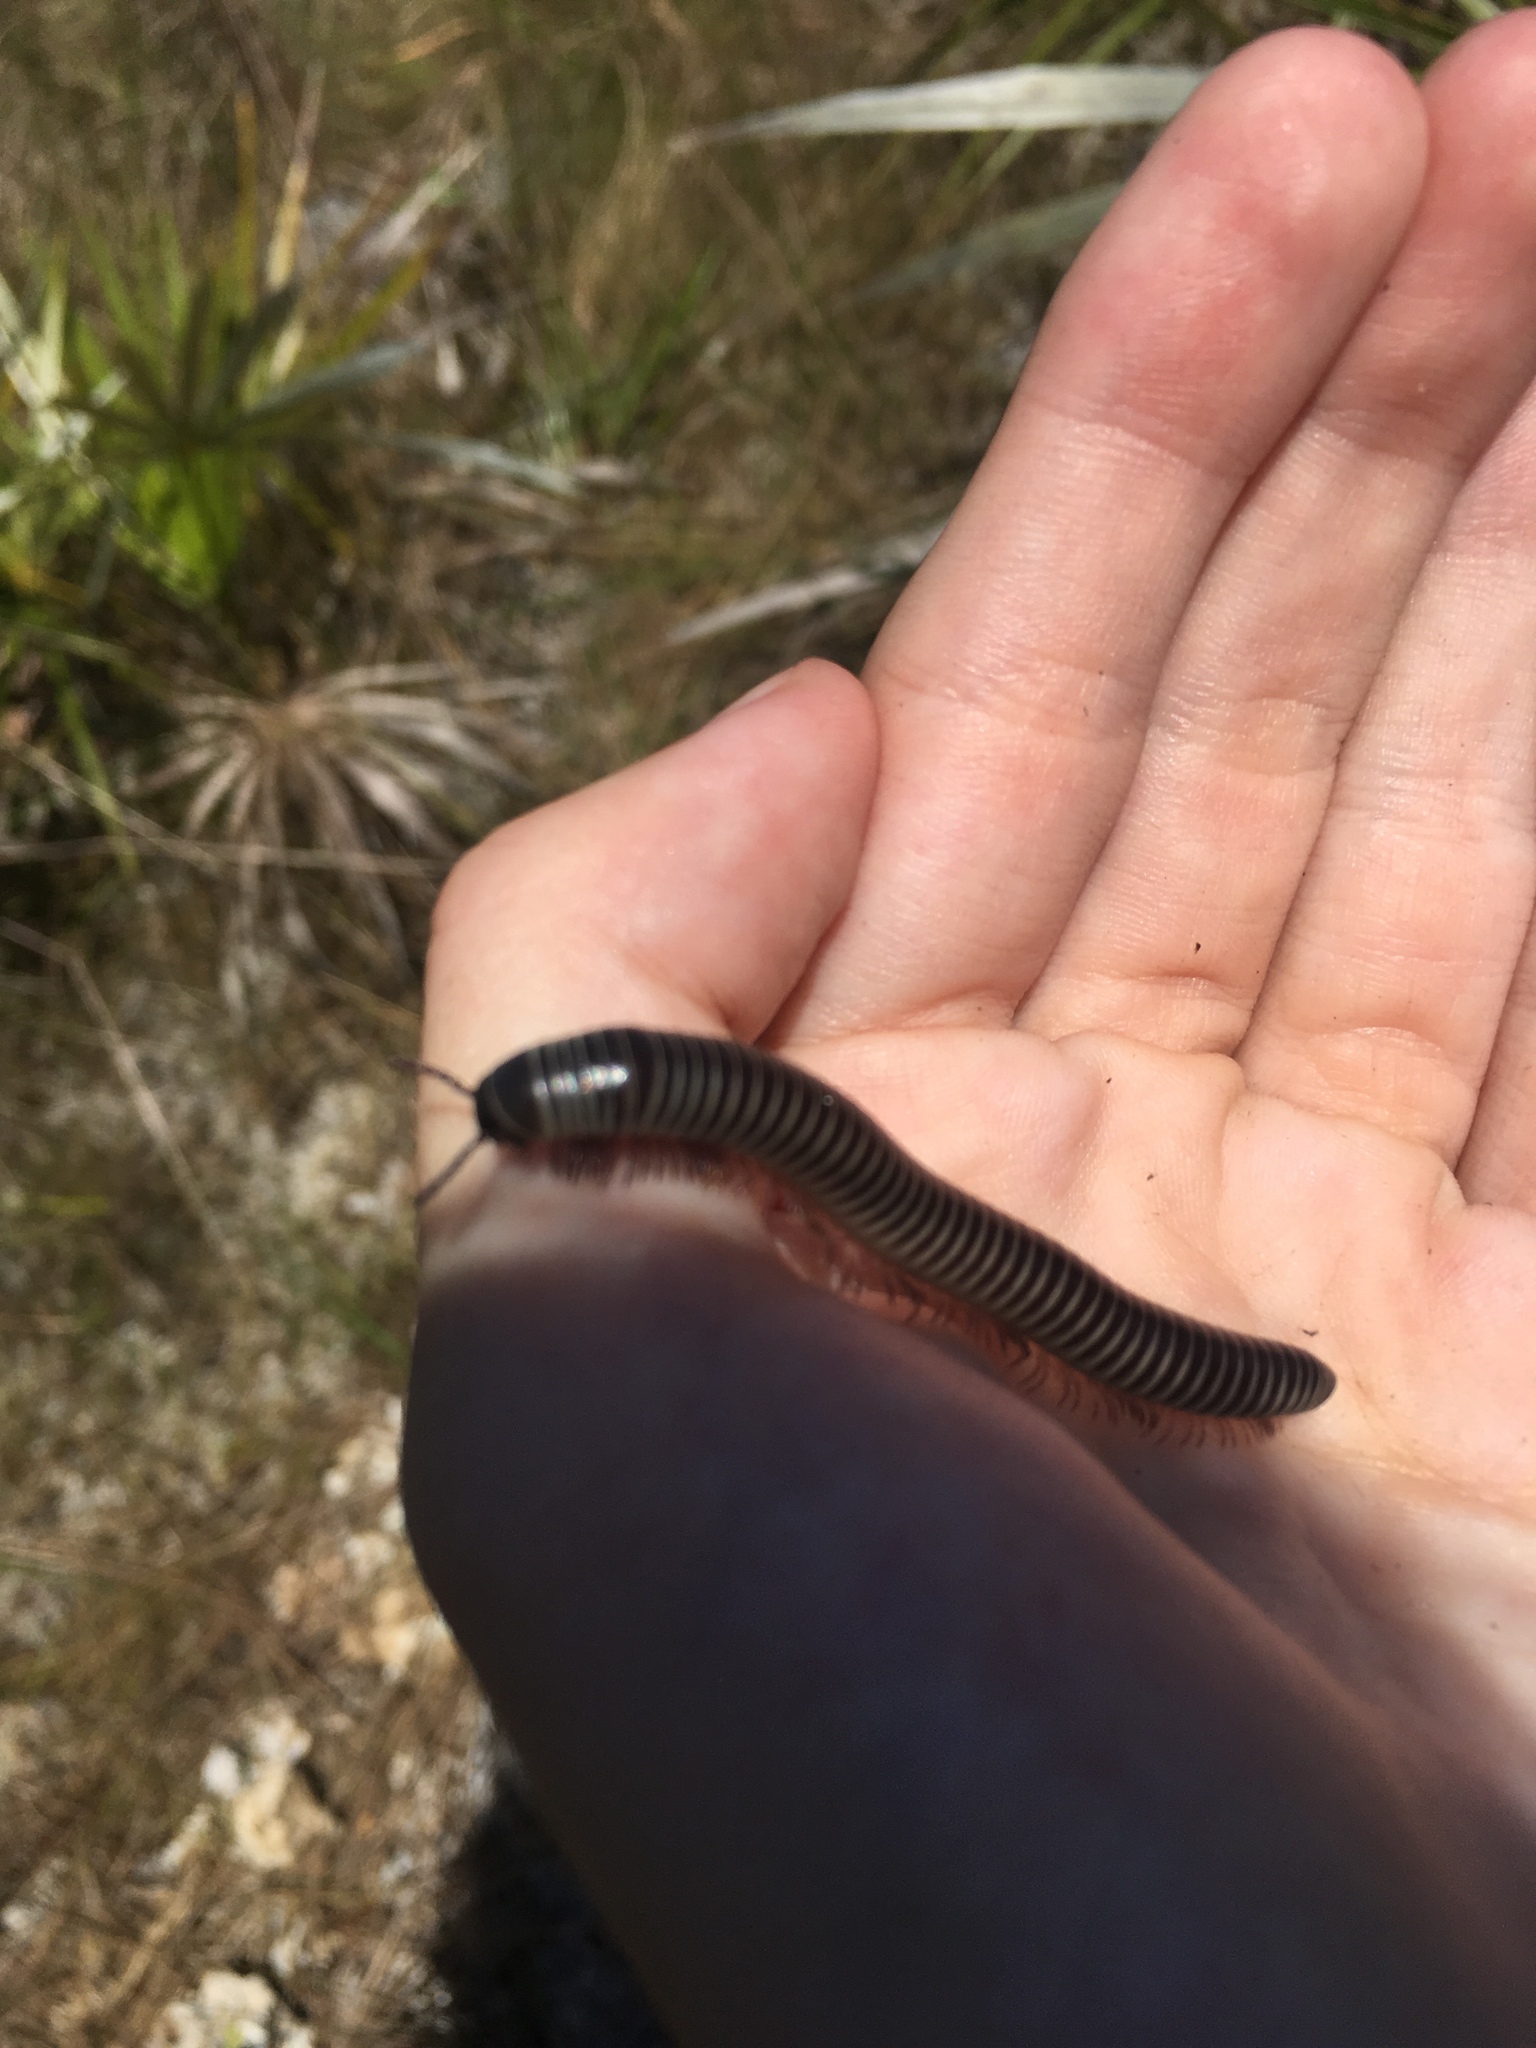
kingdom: Animalia
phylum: Arthropoda
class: Diplopoda
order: Spirobolida
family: Spirobolidae
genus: Chicobolus
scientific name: Chicobolus spinigerus
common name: Florida ivory millipede
